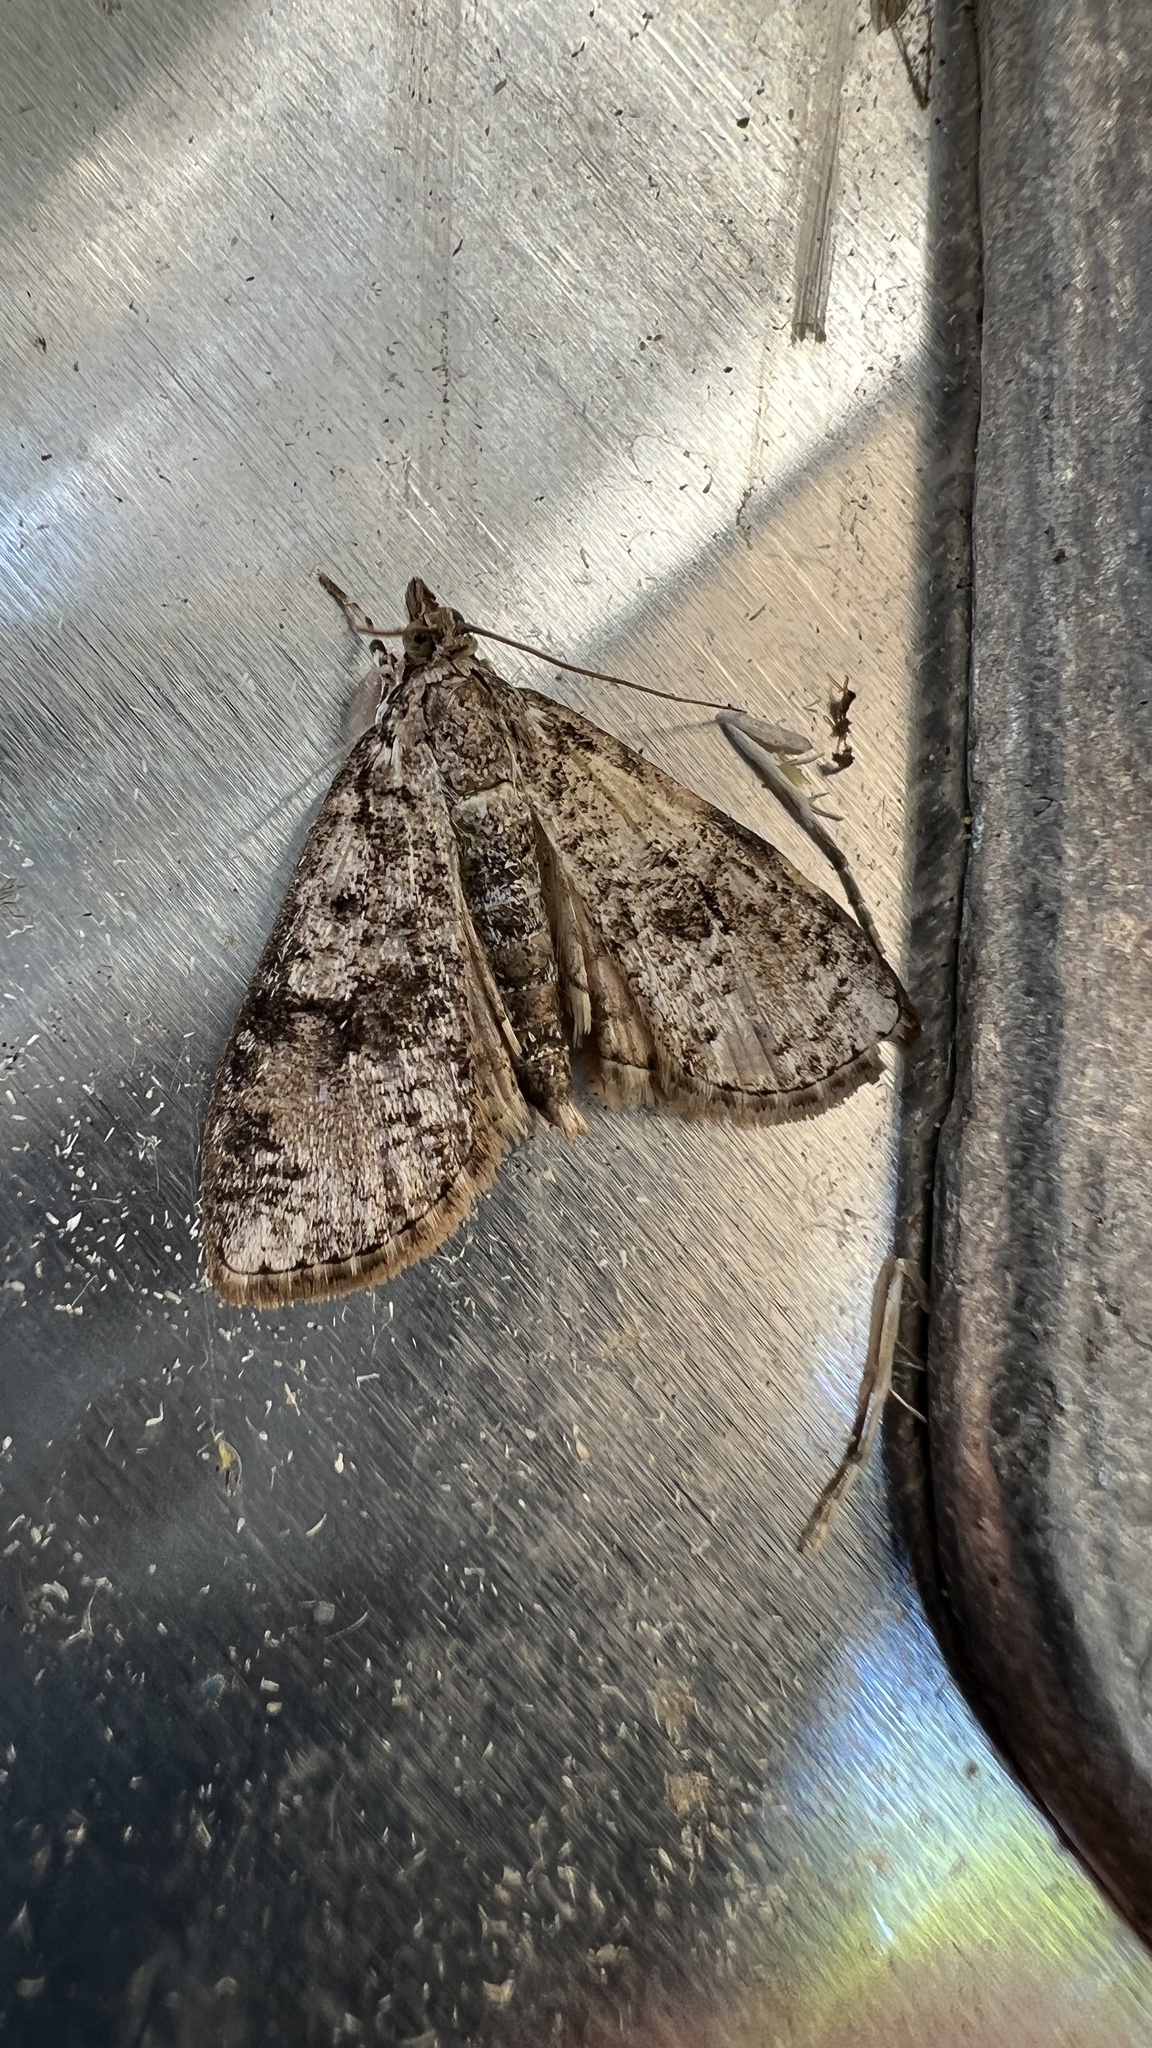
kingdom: Animalia
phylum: Arthropoda
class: Insecta
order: Lepidoptera
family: Crambidae
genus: Palpita
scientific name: Palpita magniferalis
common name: Splendid palpita moth
